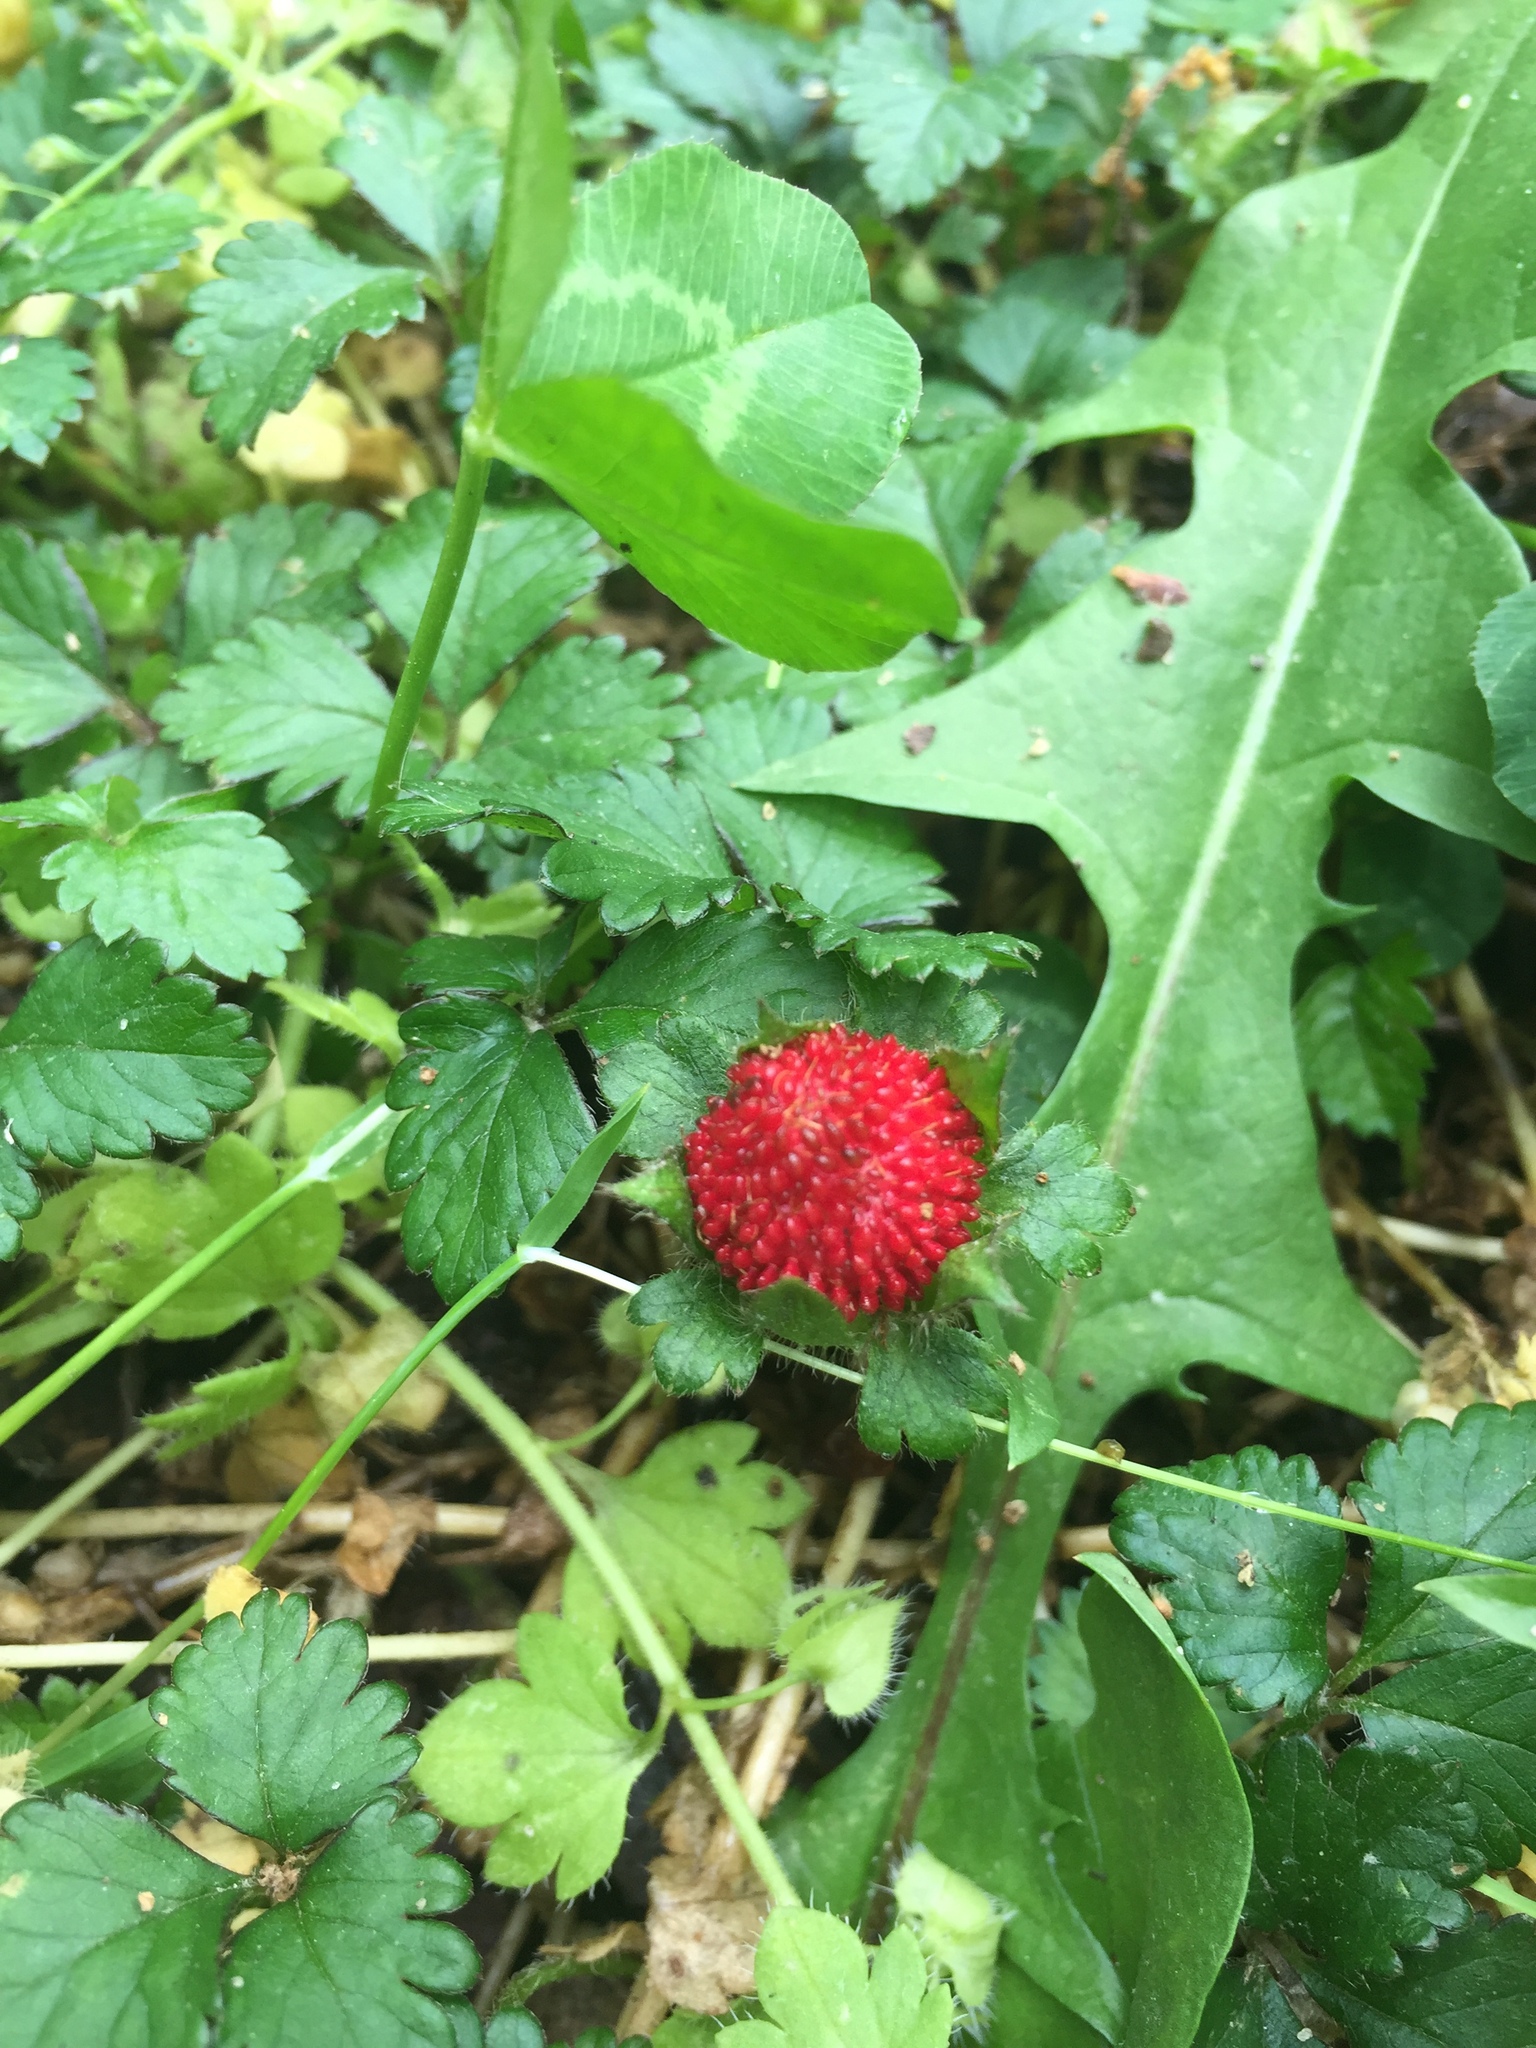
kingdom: Plantae
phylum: Tracheophyta
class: Magnoliopsida
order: Rosales
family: Rosaceae
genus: Potentilla
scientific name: Potentilla indica
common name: Yellow-flowered strawberry
